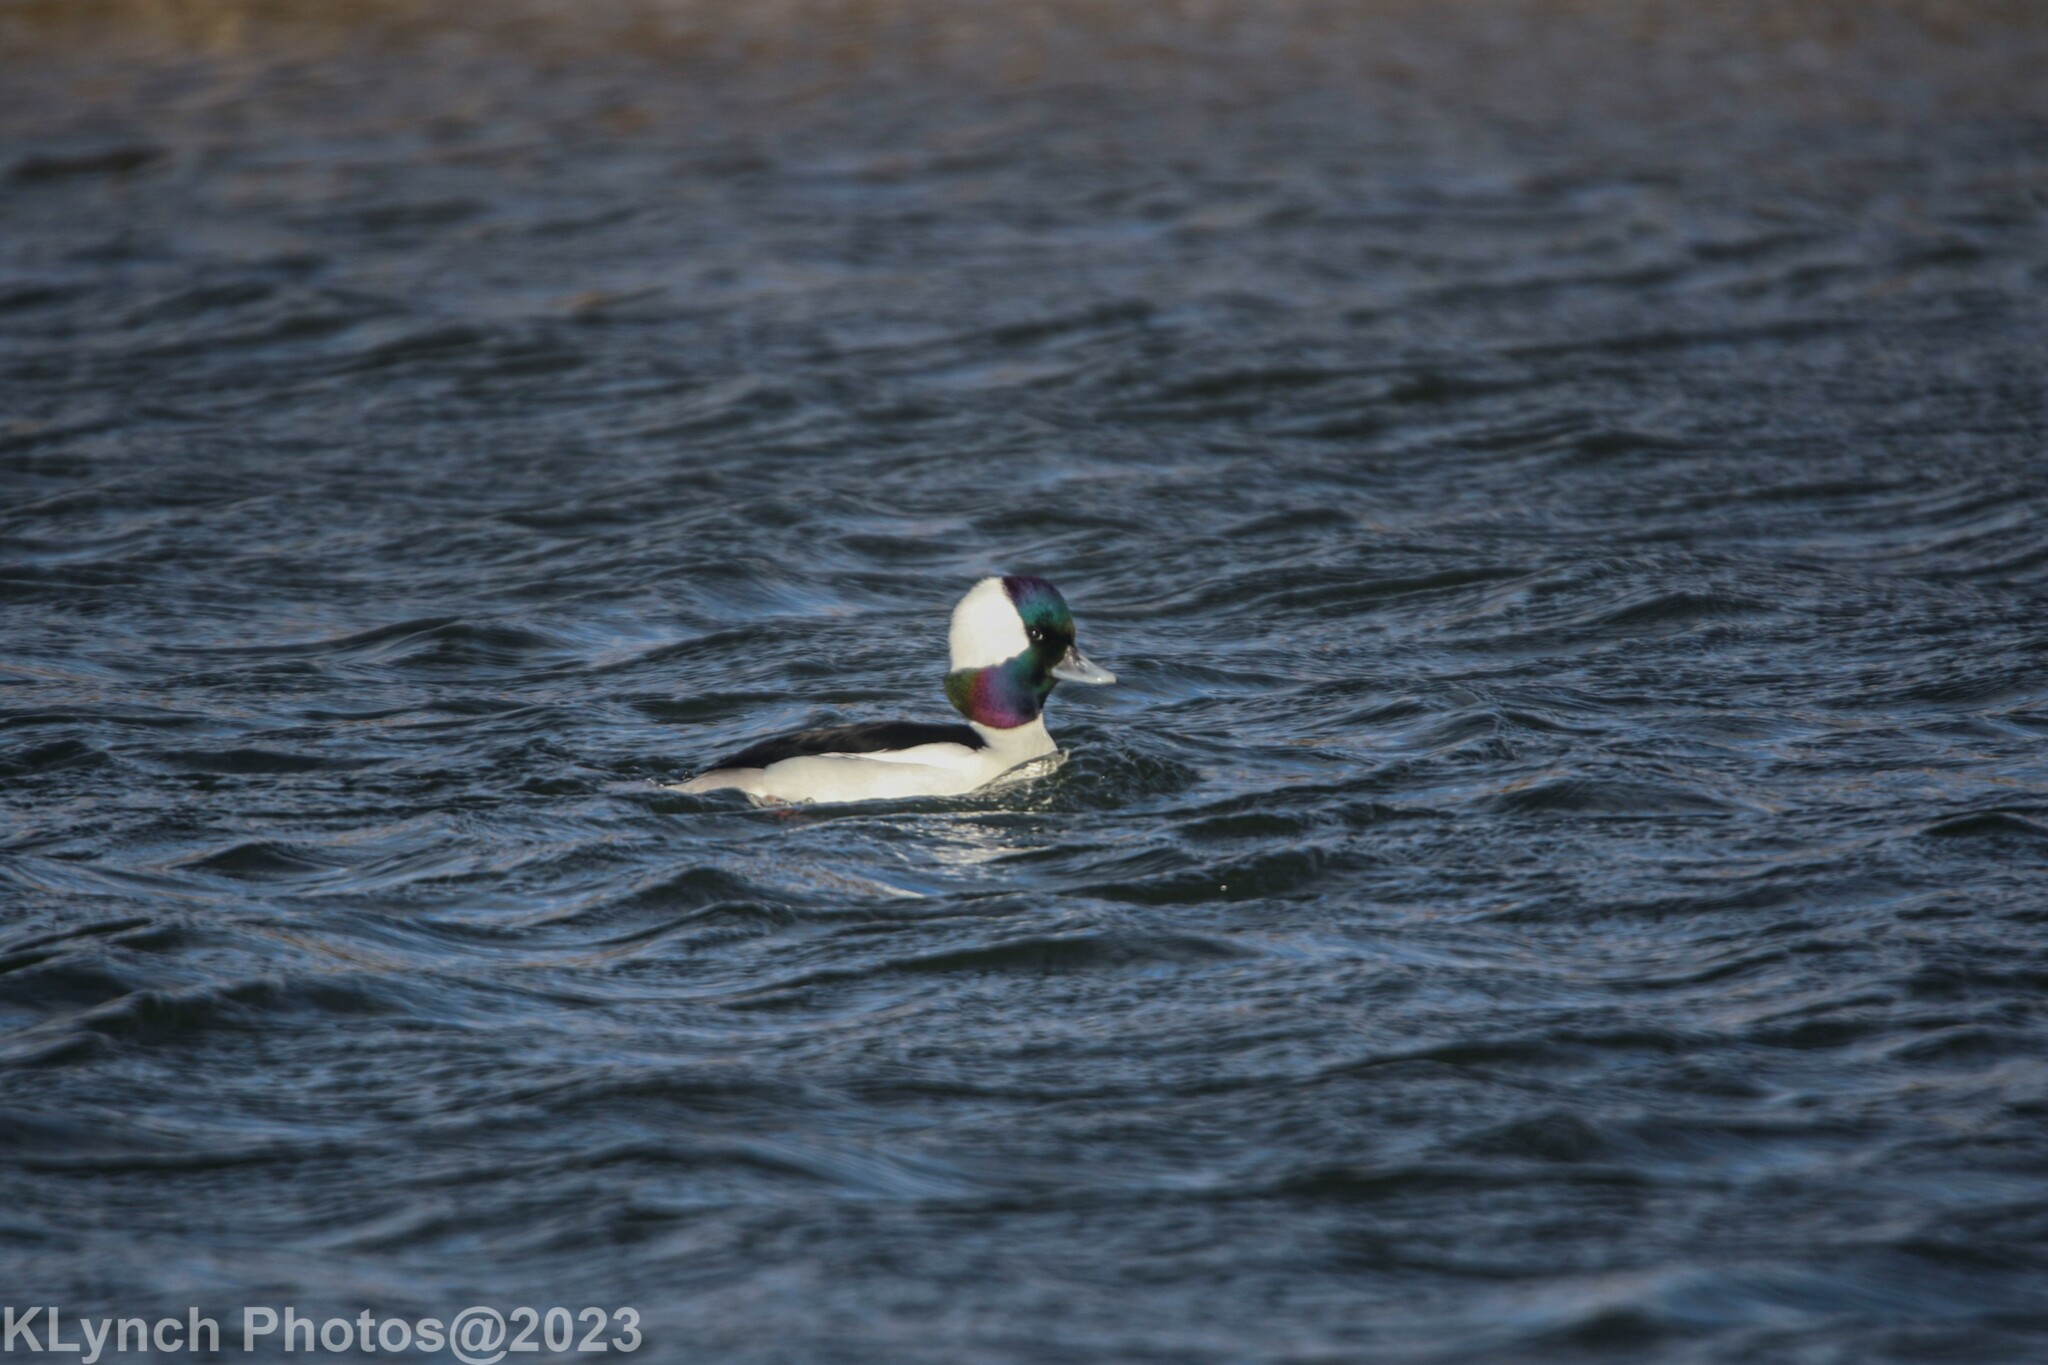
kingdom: Animalia
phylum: Chordata
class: Aves
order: Anseriformes
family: Anatidae
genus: Bucephala
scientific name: Bucephala albeola
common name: Bufflehead
